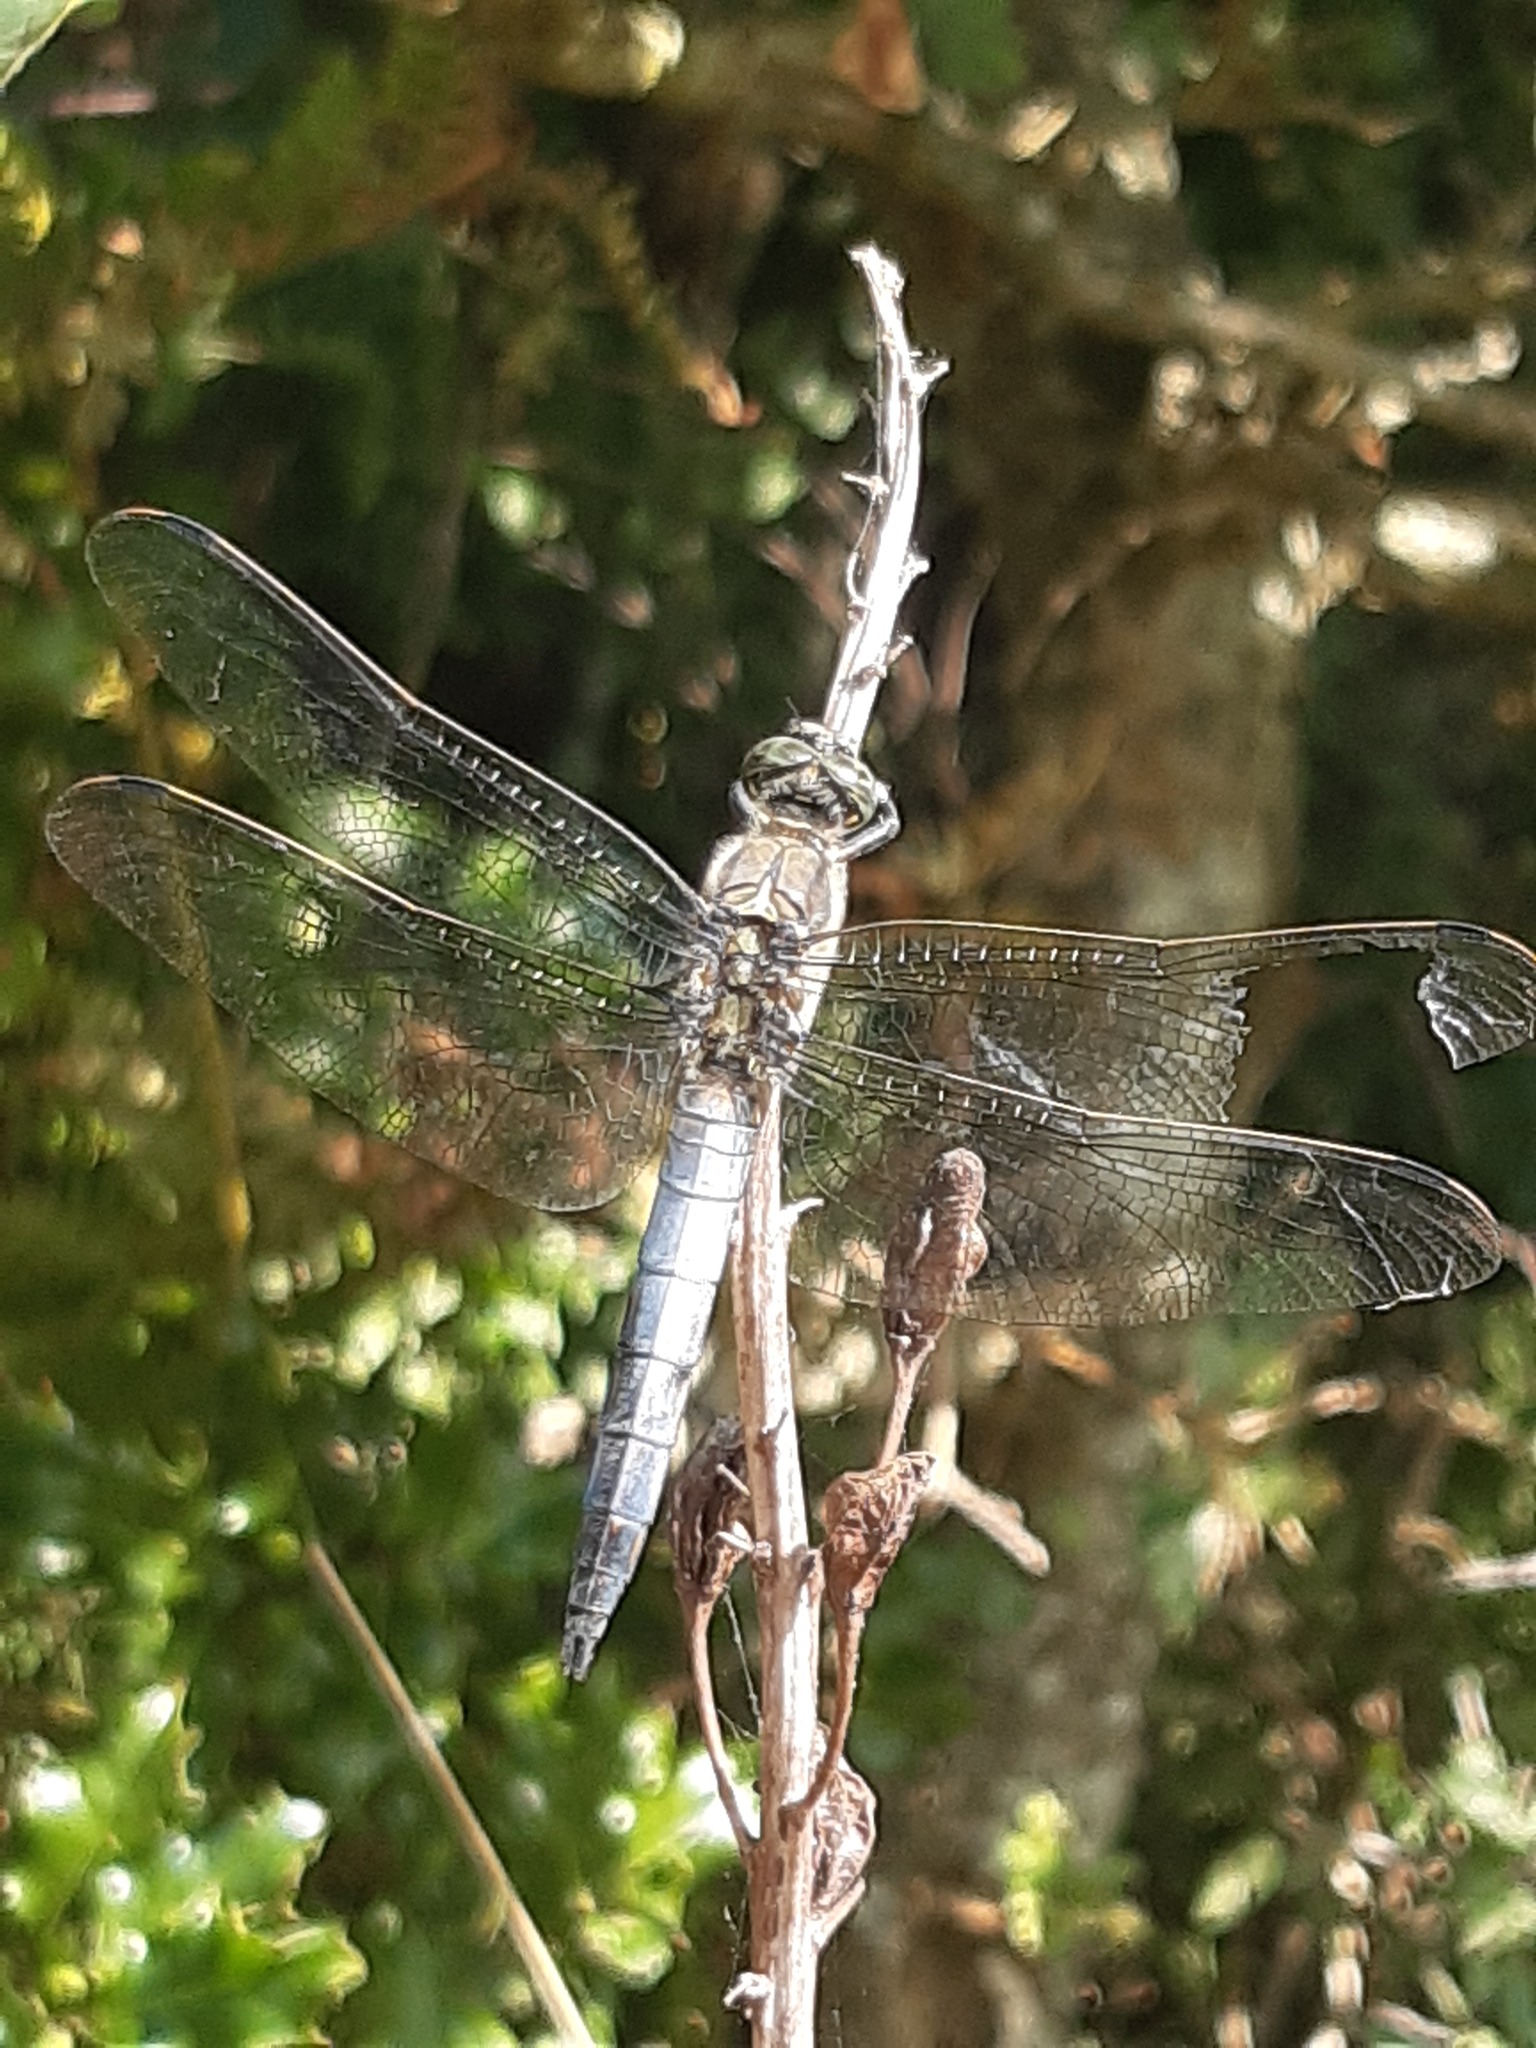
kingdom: Animalia
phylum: Arthropoda
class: Insecta
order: Odonata
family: Libellulidae
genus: Orthetrum
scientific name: Orthetrum cancellatum
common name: Black-tailed skimmer
